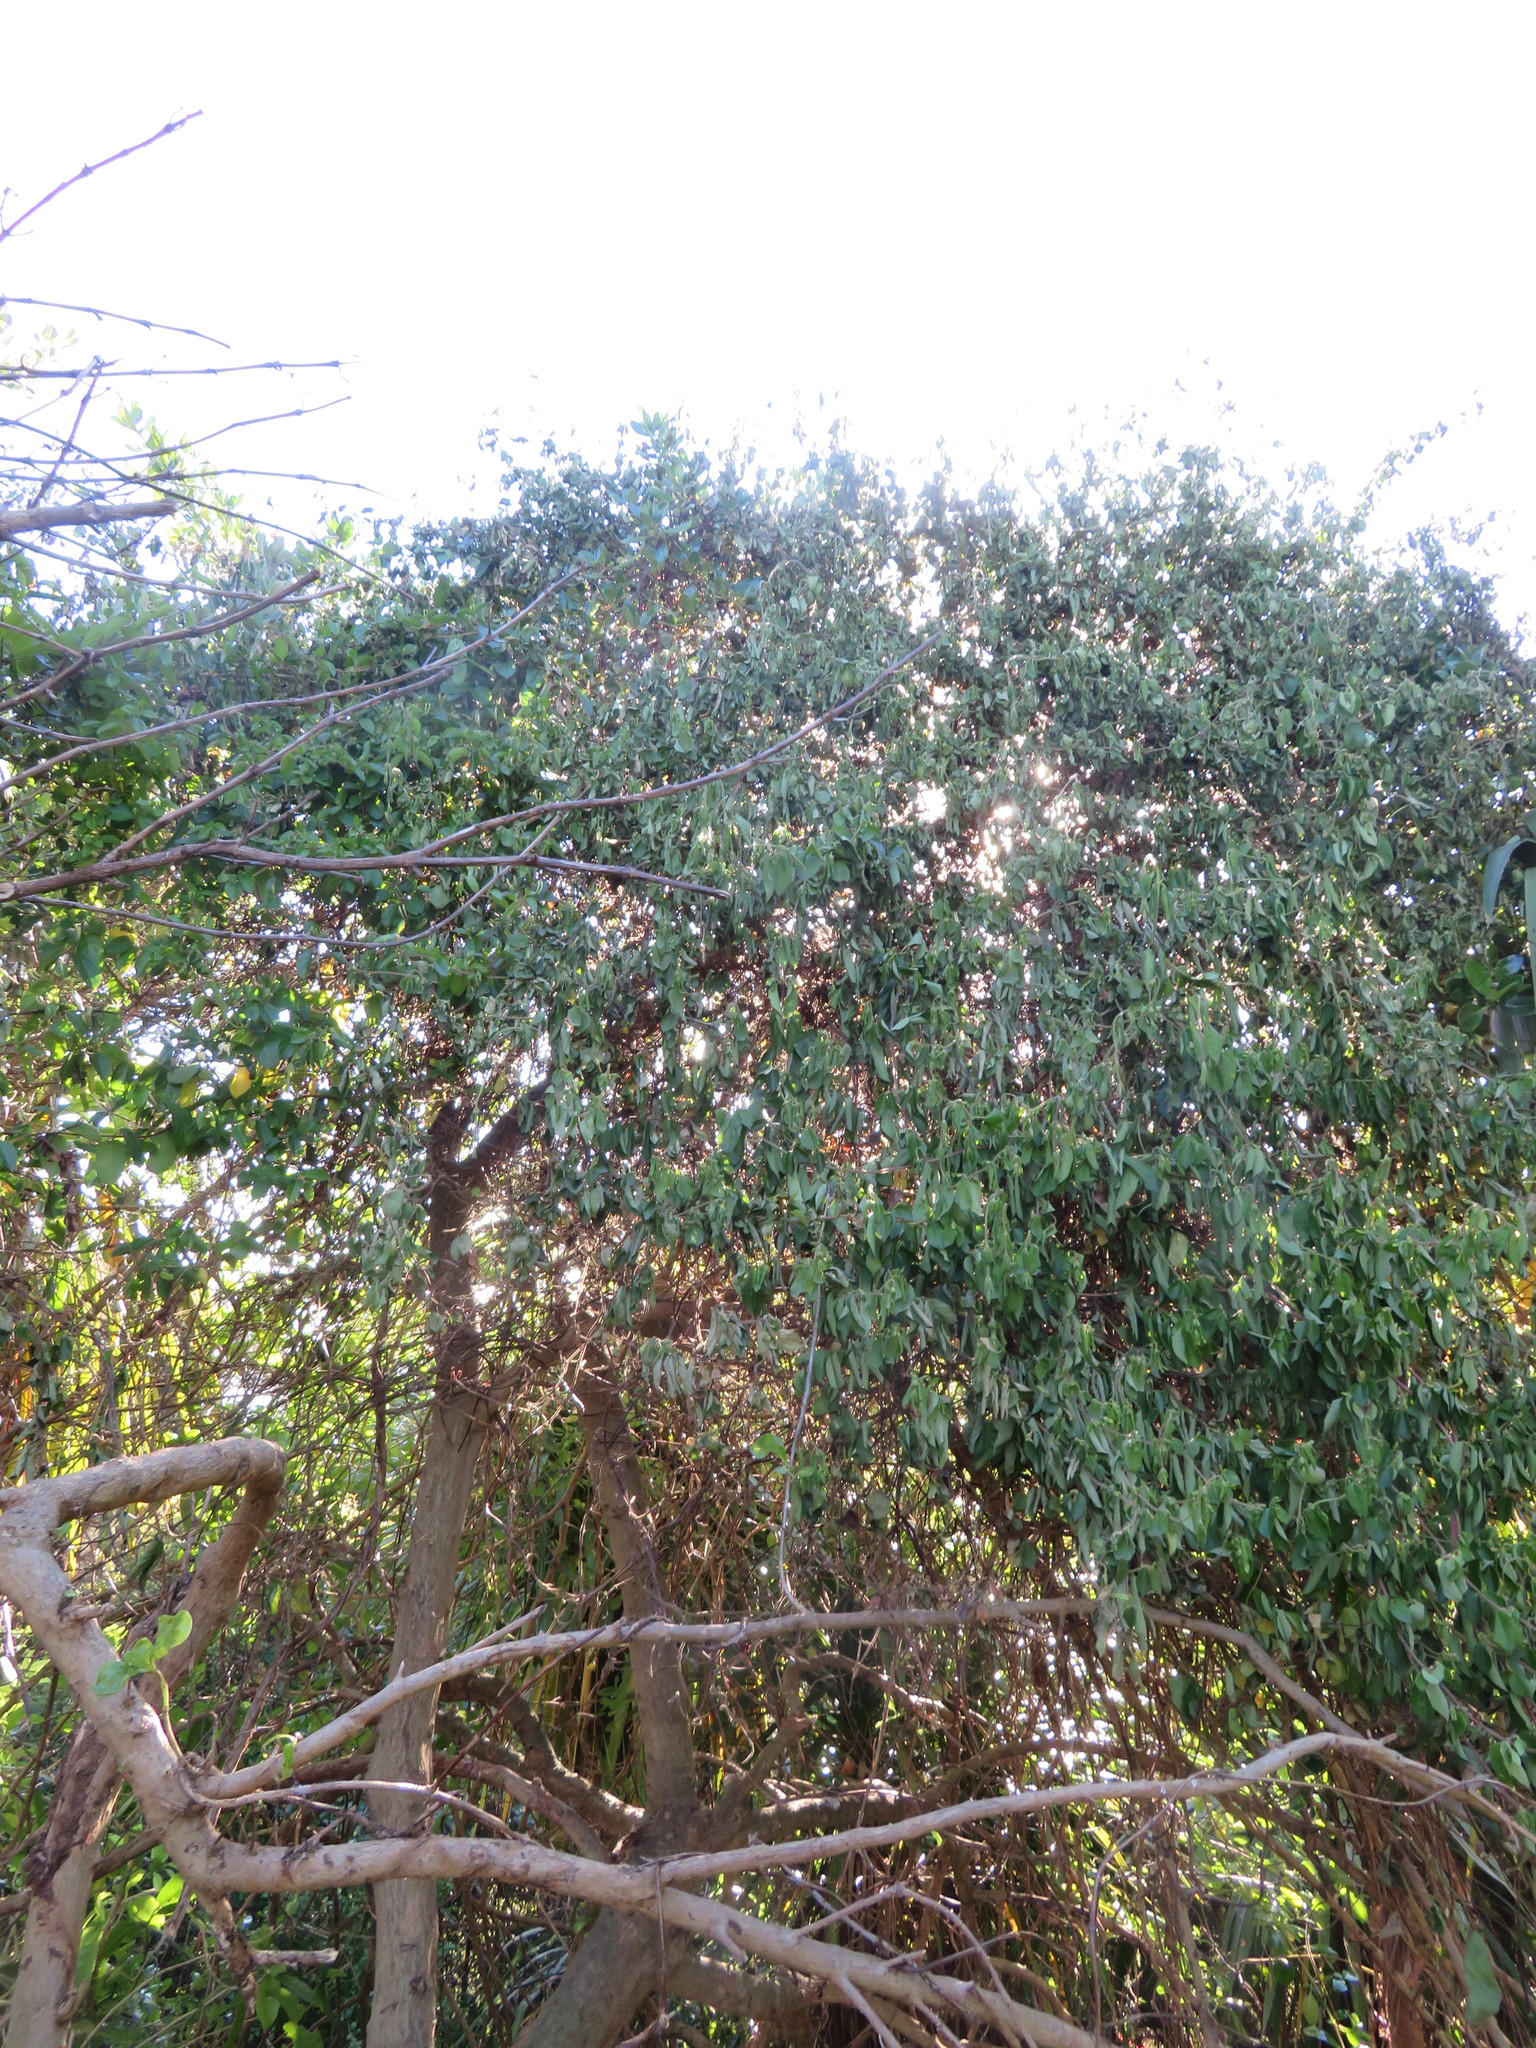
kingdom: Plantae
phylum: Tracheophyta
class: Magnoliopsida
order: Gentianales
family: Rubiaceae
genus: Coprosma
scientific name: Coprosma repens
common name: Tree bedstraw
